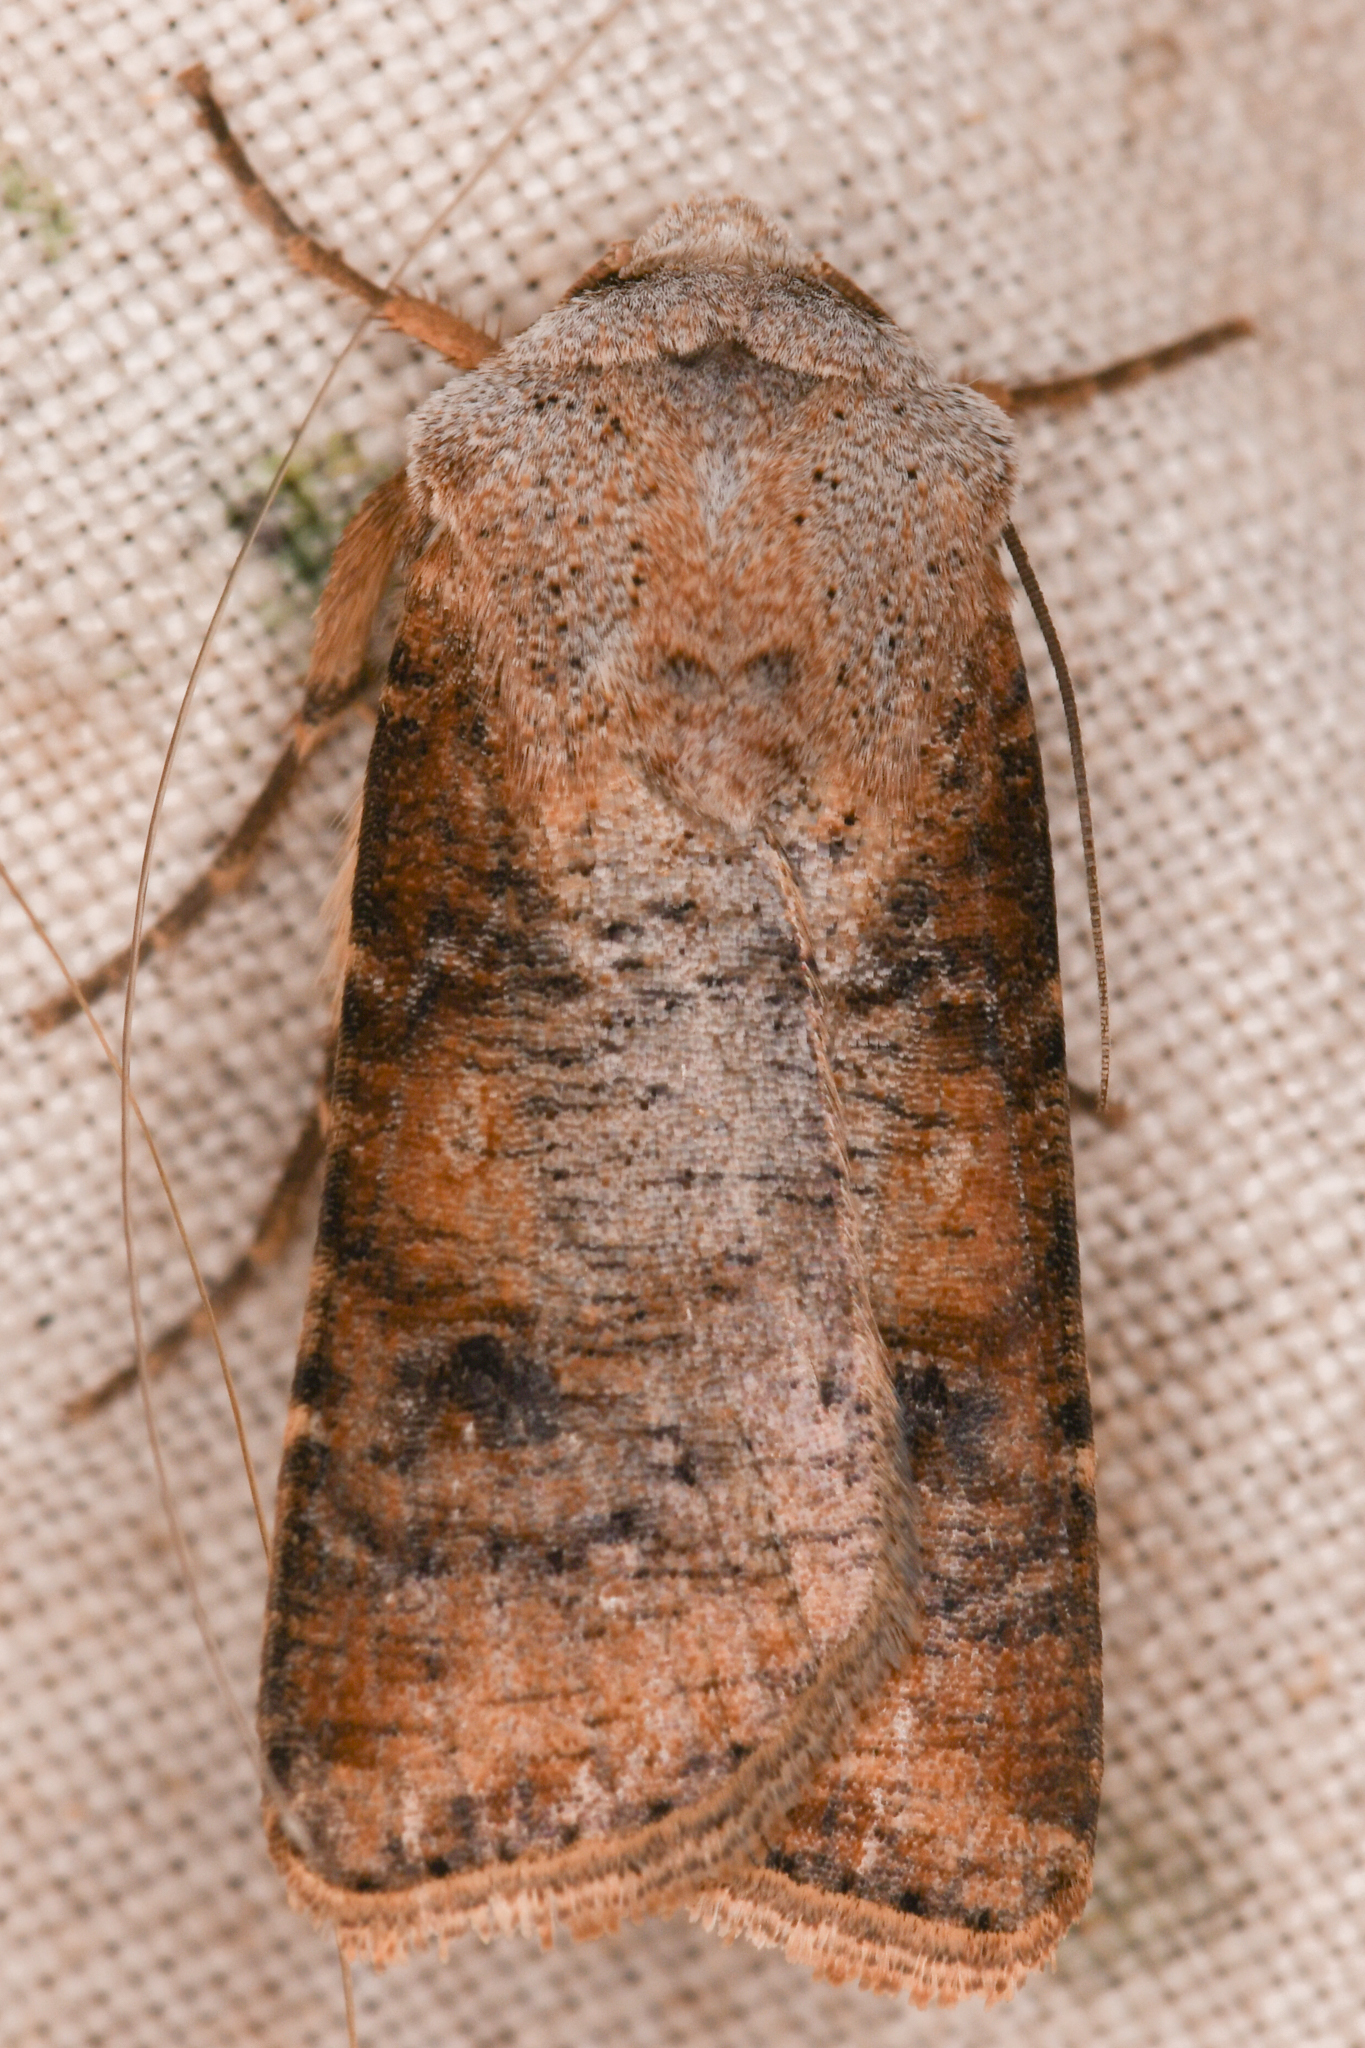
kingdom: Animalia
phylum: Arthropoda
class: Insecta
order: Lepidoptera
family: Noctuidae
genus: Euxoa
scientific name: Euxoa bochus
